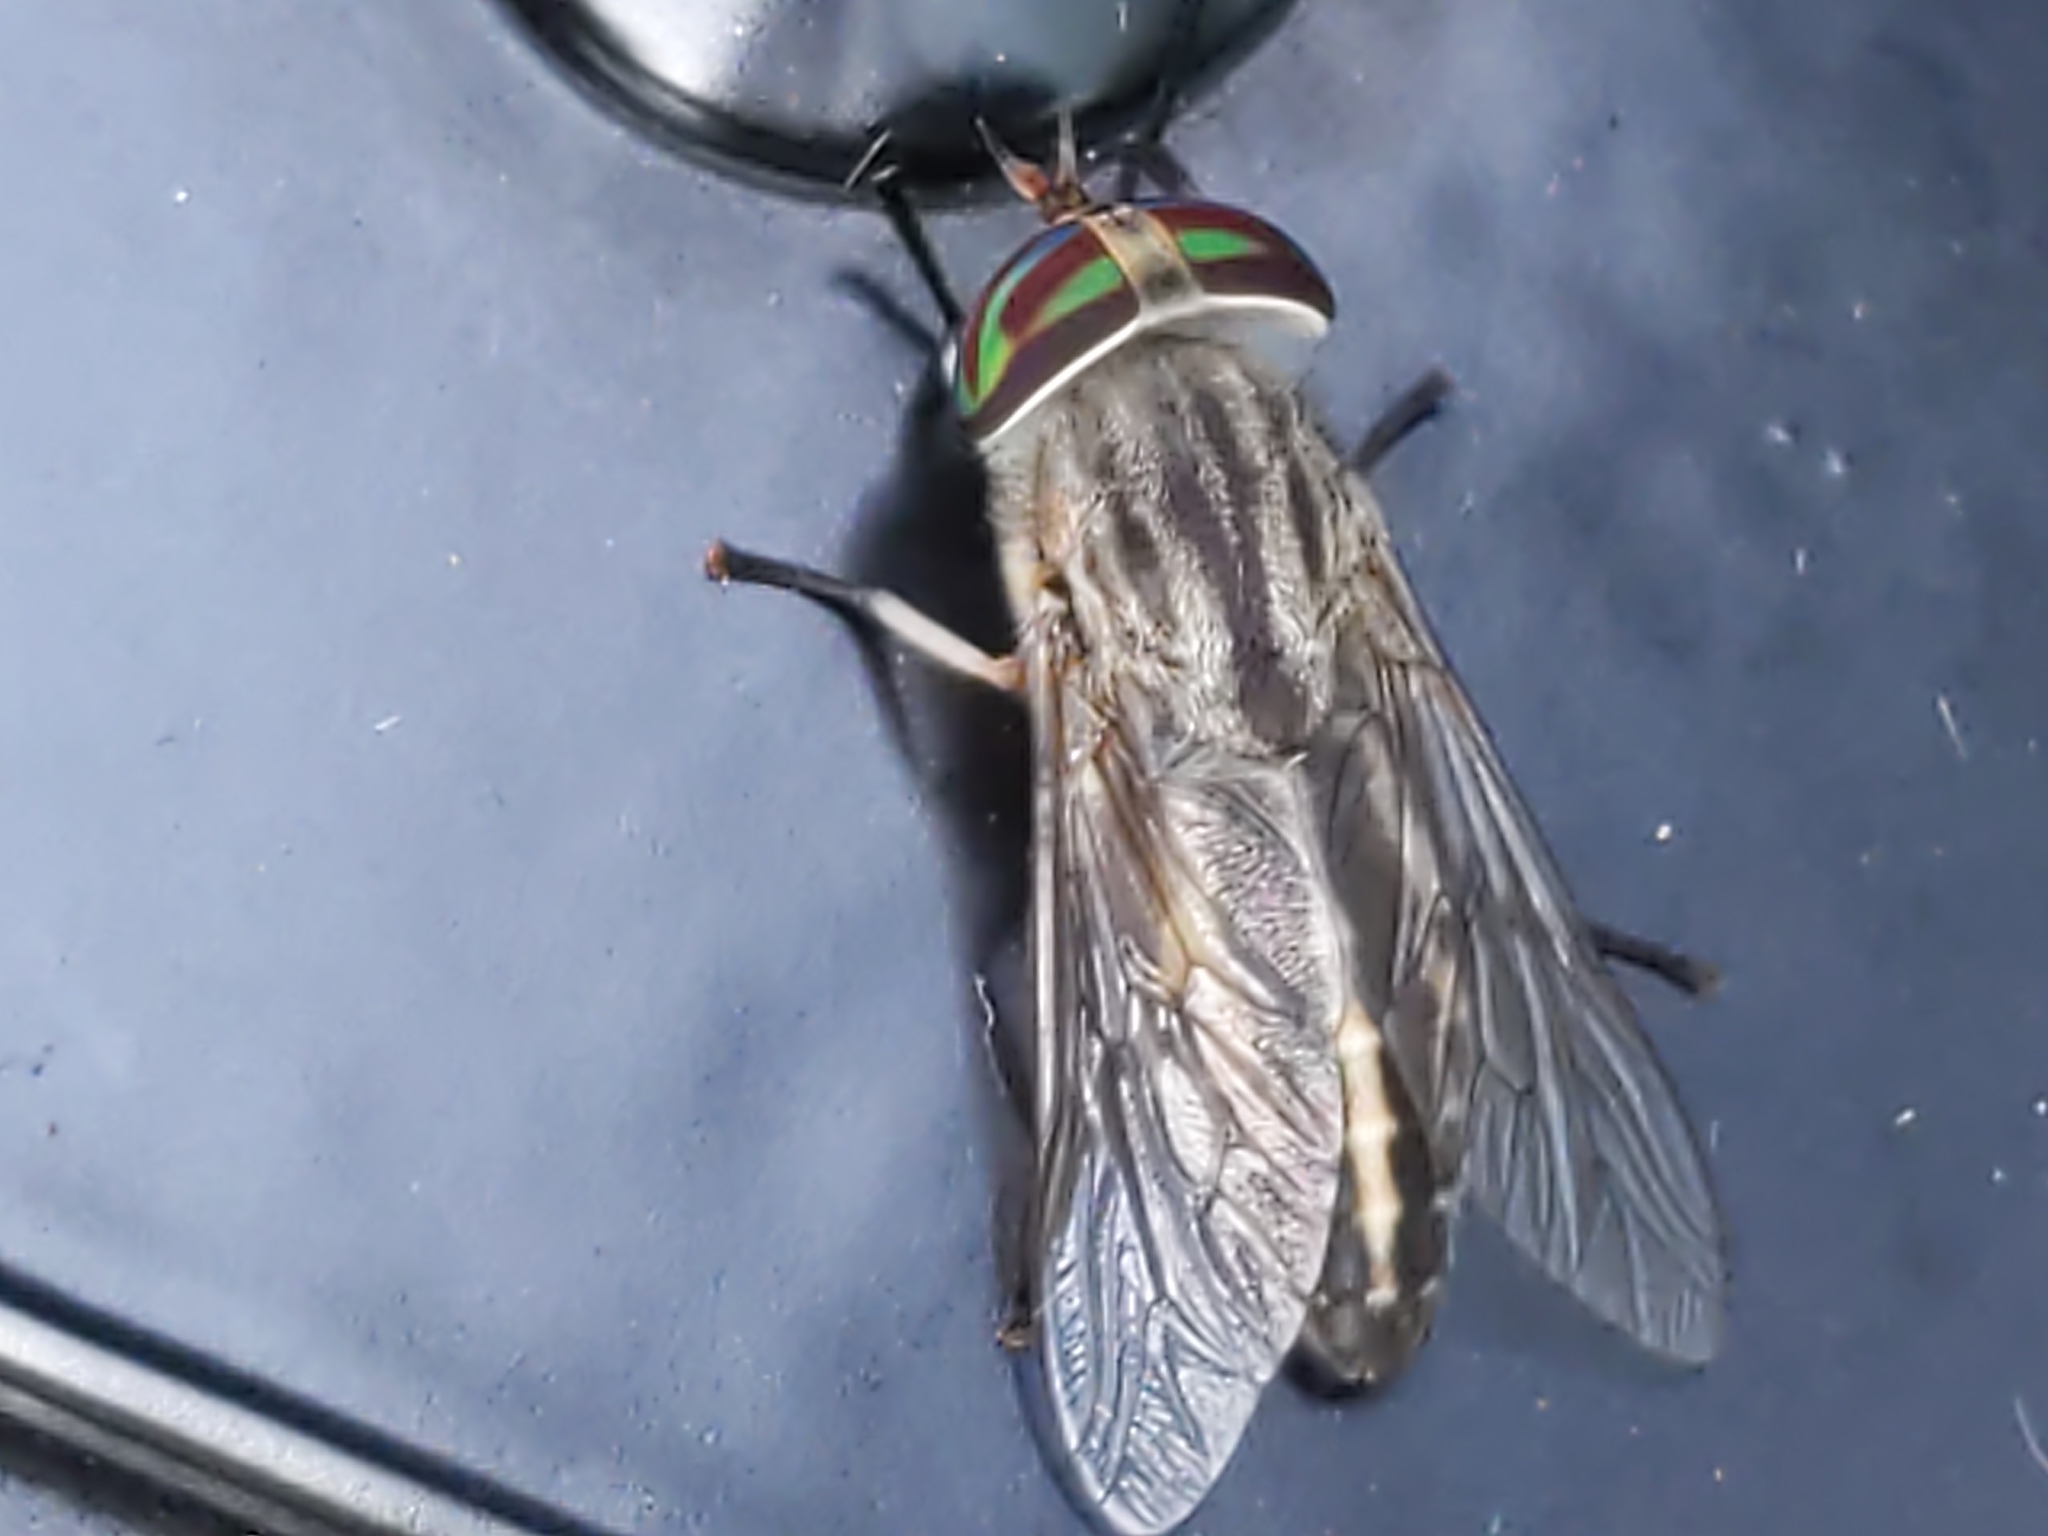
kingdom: Animalia
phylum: Arthropoda
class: Insecta
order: Diptera
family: Tabanidae
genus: Tabanus
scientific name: Tabanus subsimilis
